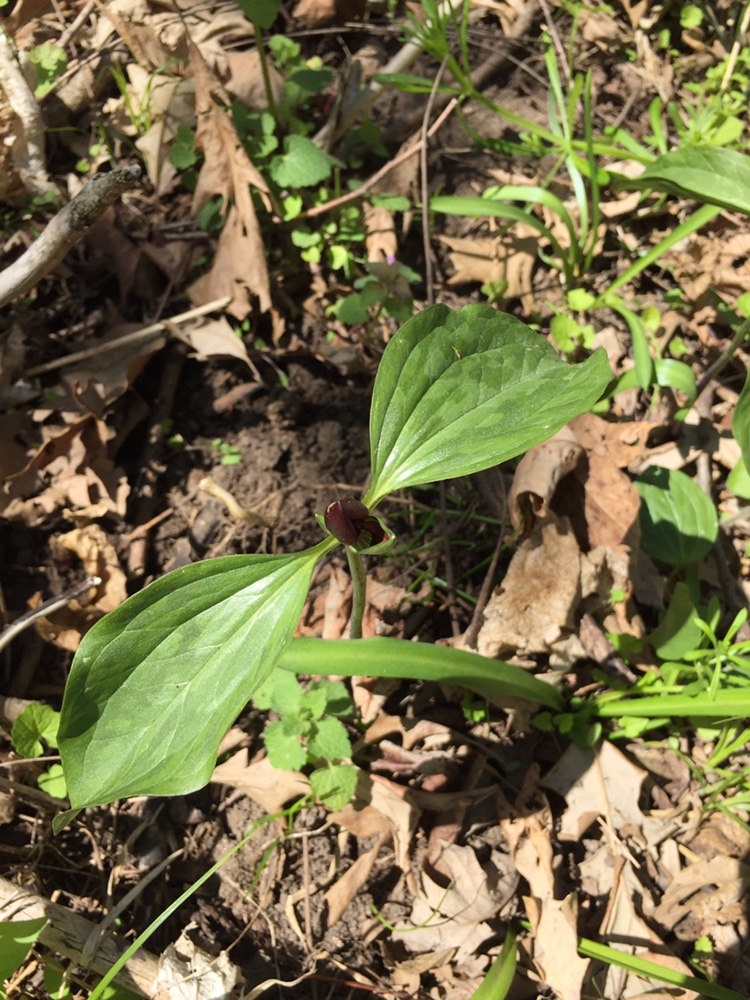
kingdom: Plantae
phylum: Tracheophyta
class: Liliopsida
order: Liliales
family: Melanthiaceae
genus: Trillium
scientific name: Trillium recurvatum
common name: Bloody butcher
